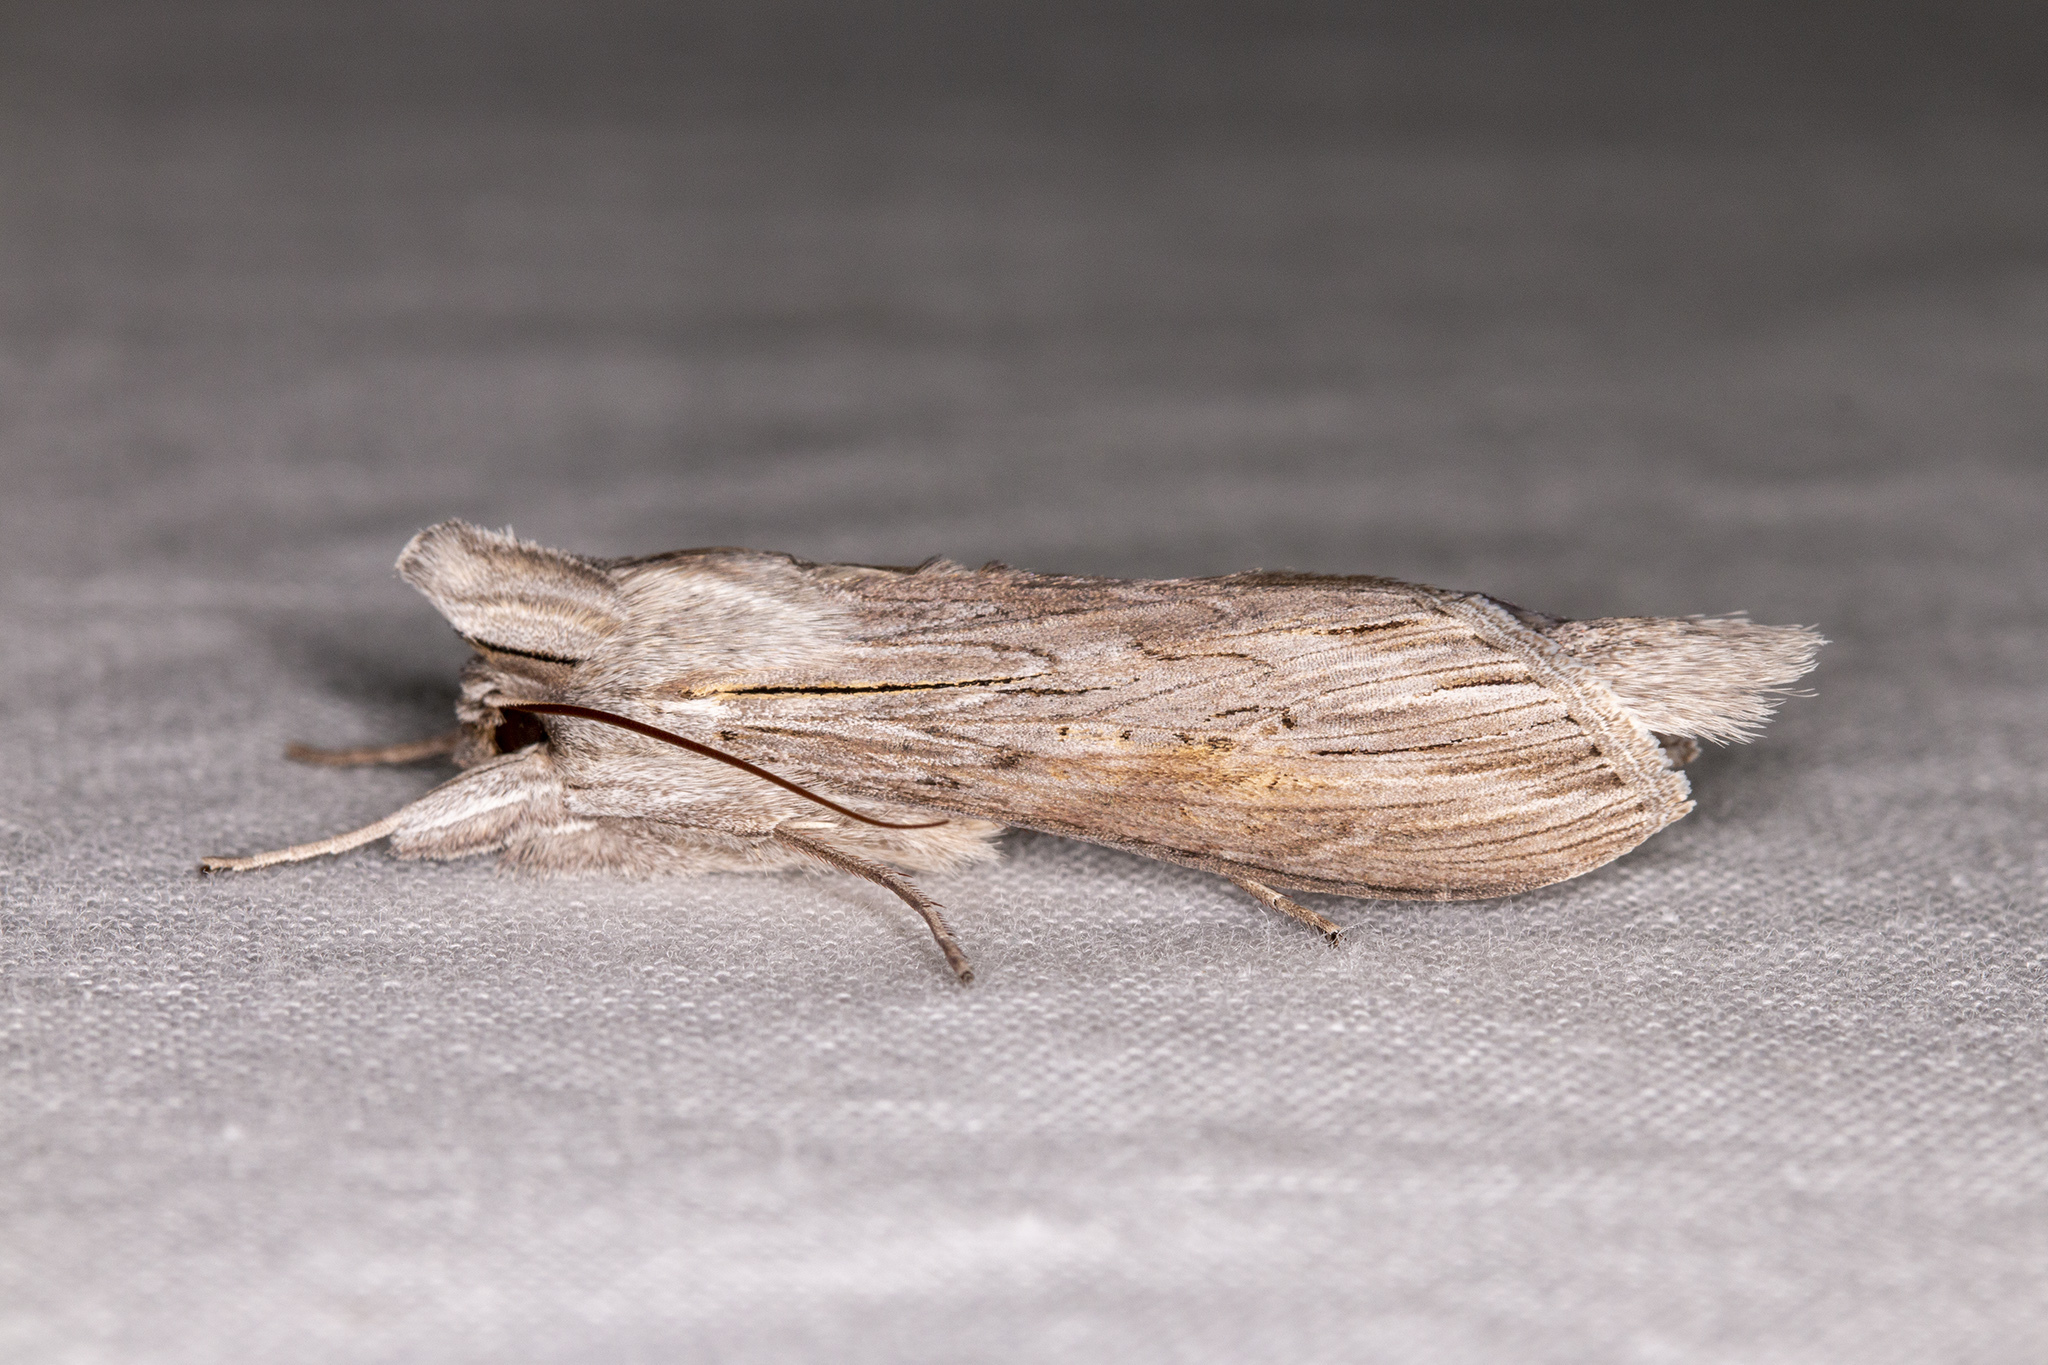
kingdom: Animalia
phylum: Arthropoda
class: Insecta
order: Lepidoptera
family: Noctuidae
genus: Cucullia
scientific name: Cucullia umbratica
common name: Shark
